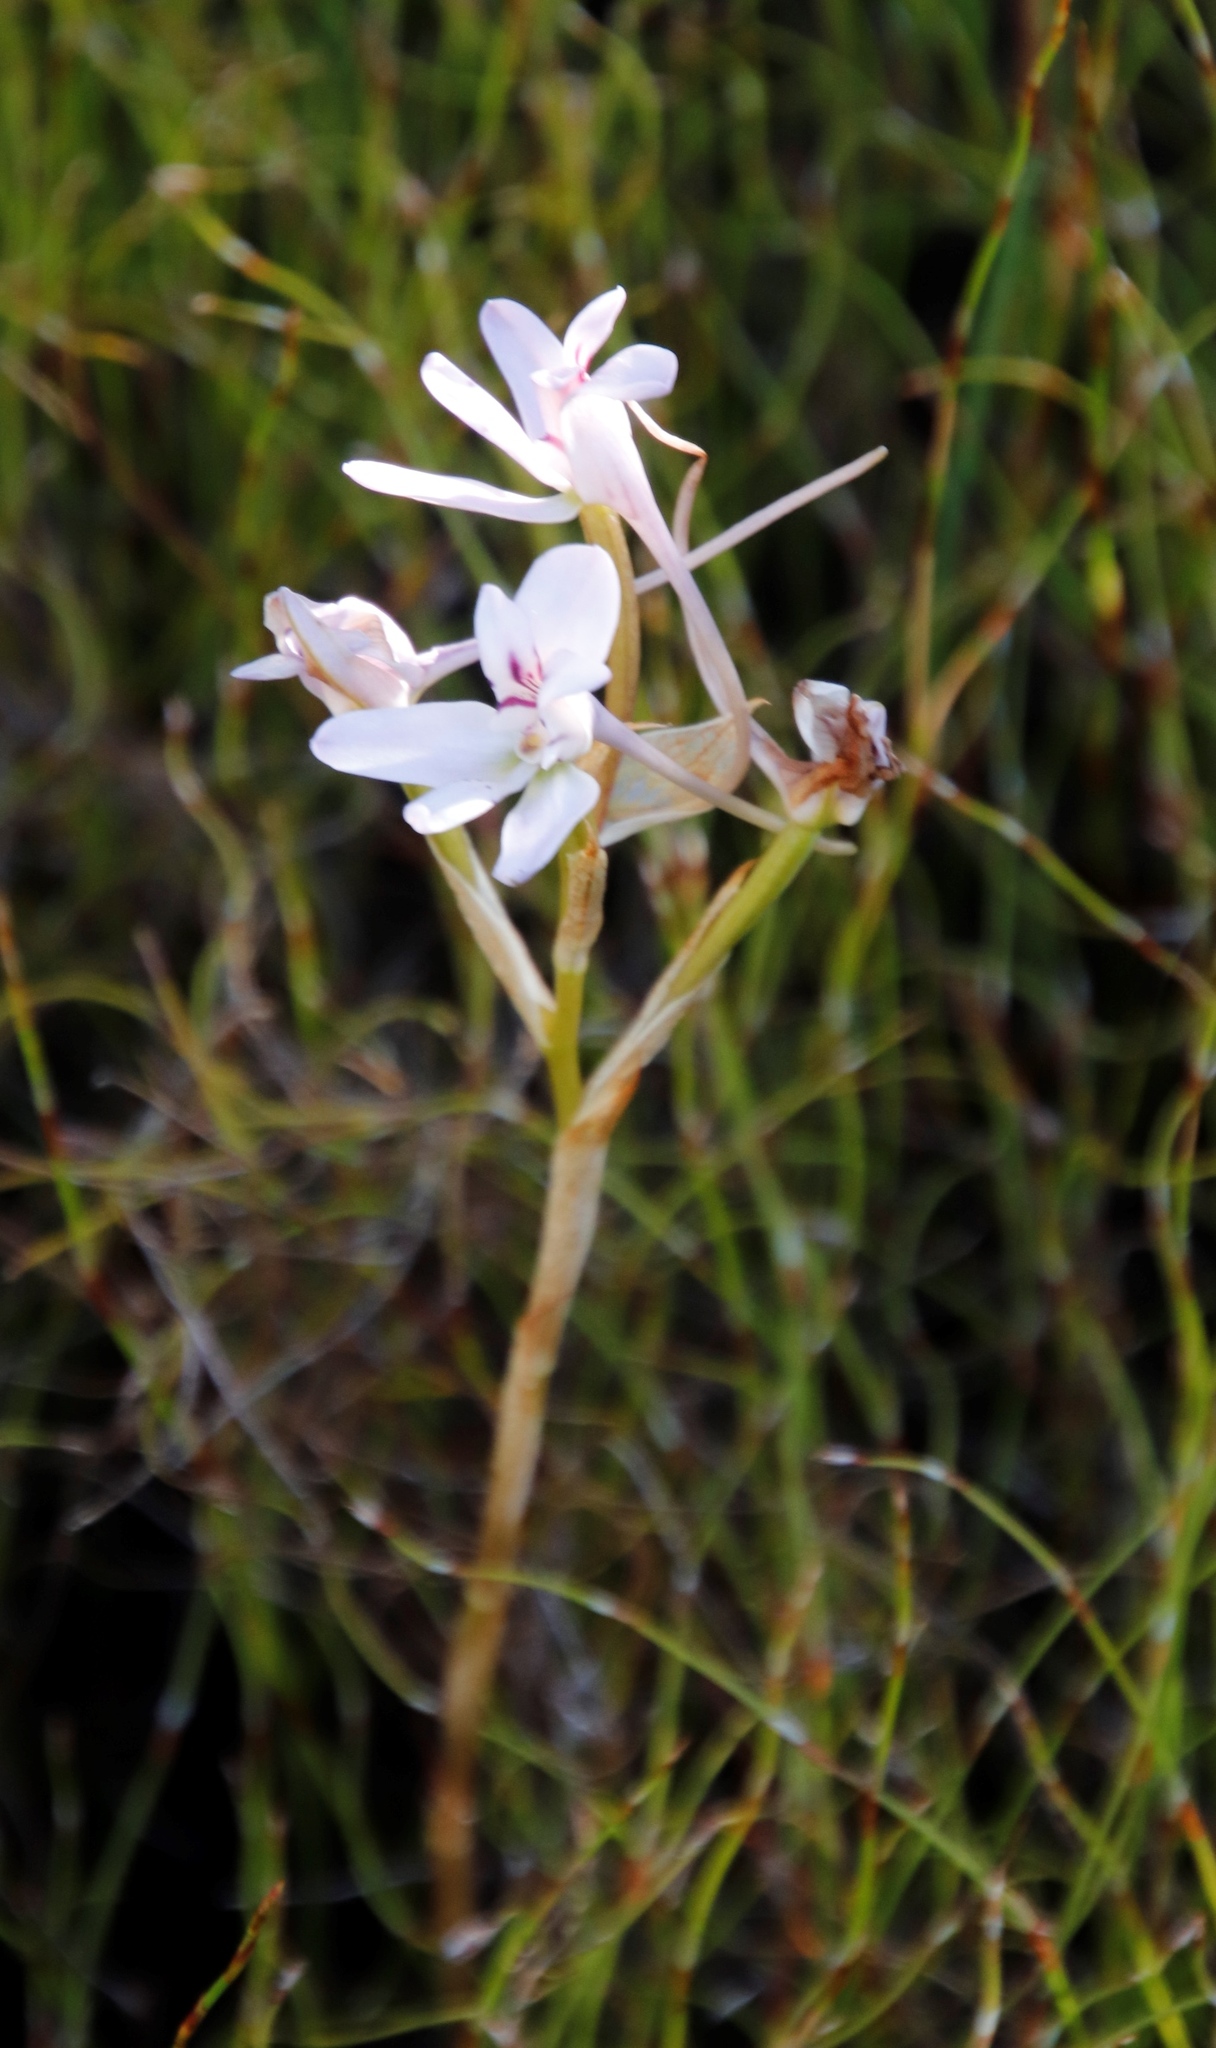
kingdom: Plantae
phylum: Tracheophyta
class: Liliopsida
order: Asparagales
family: Orchidaceae
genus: Disa
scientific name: Disa harveyana
